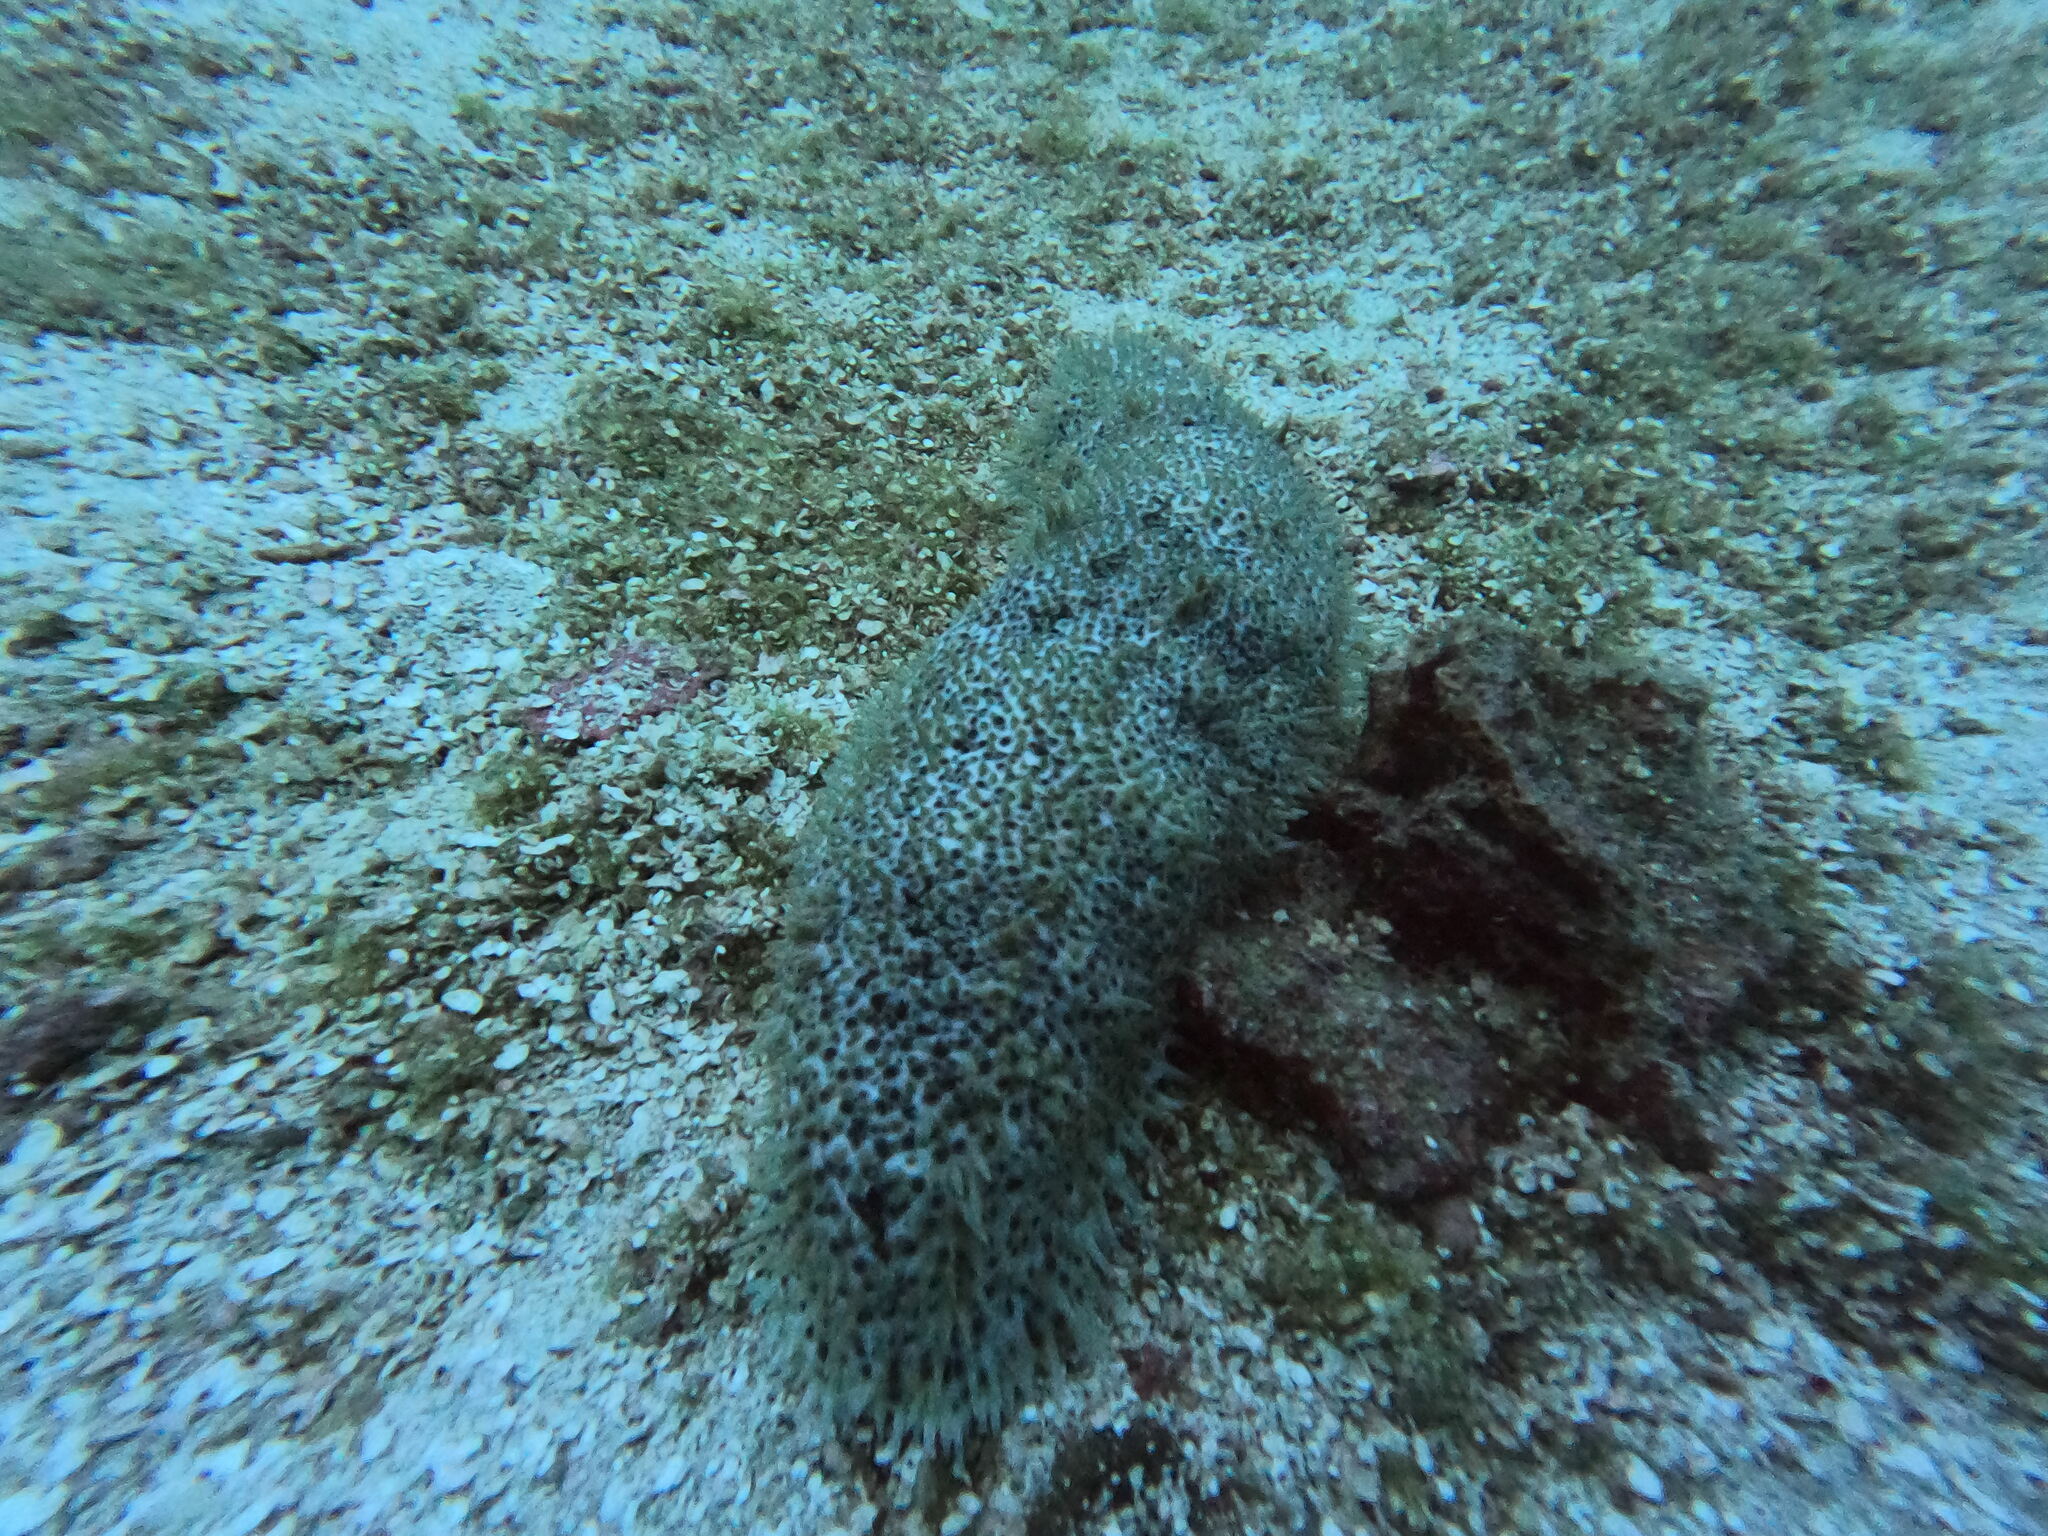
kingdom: Animalia
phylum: Echinodermata
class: Holothuroidea
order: Synallactida
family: Stichopodidae
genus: Astichopus
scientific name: Astichopus multifidus
